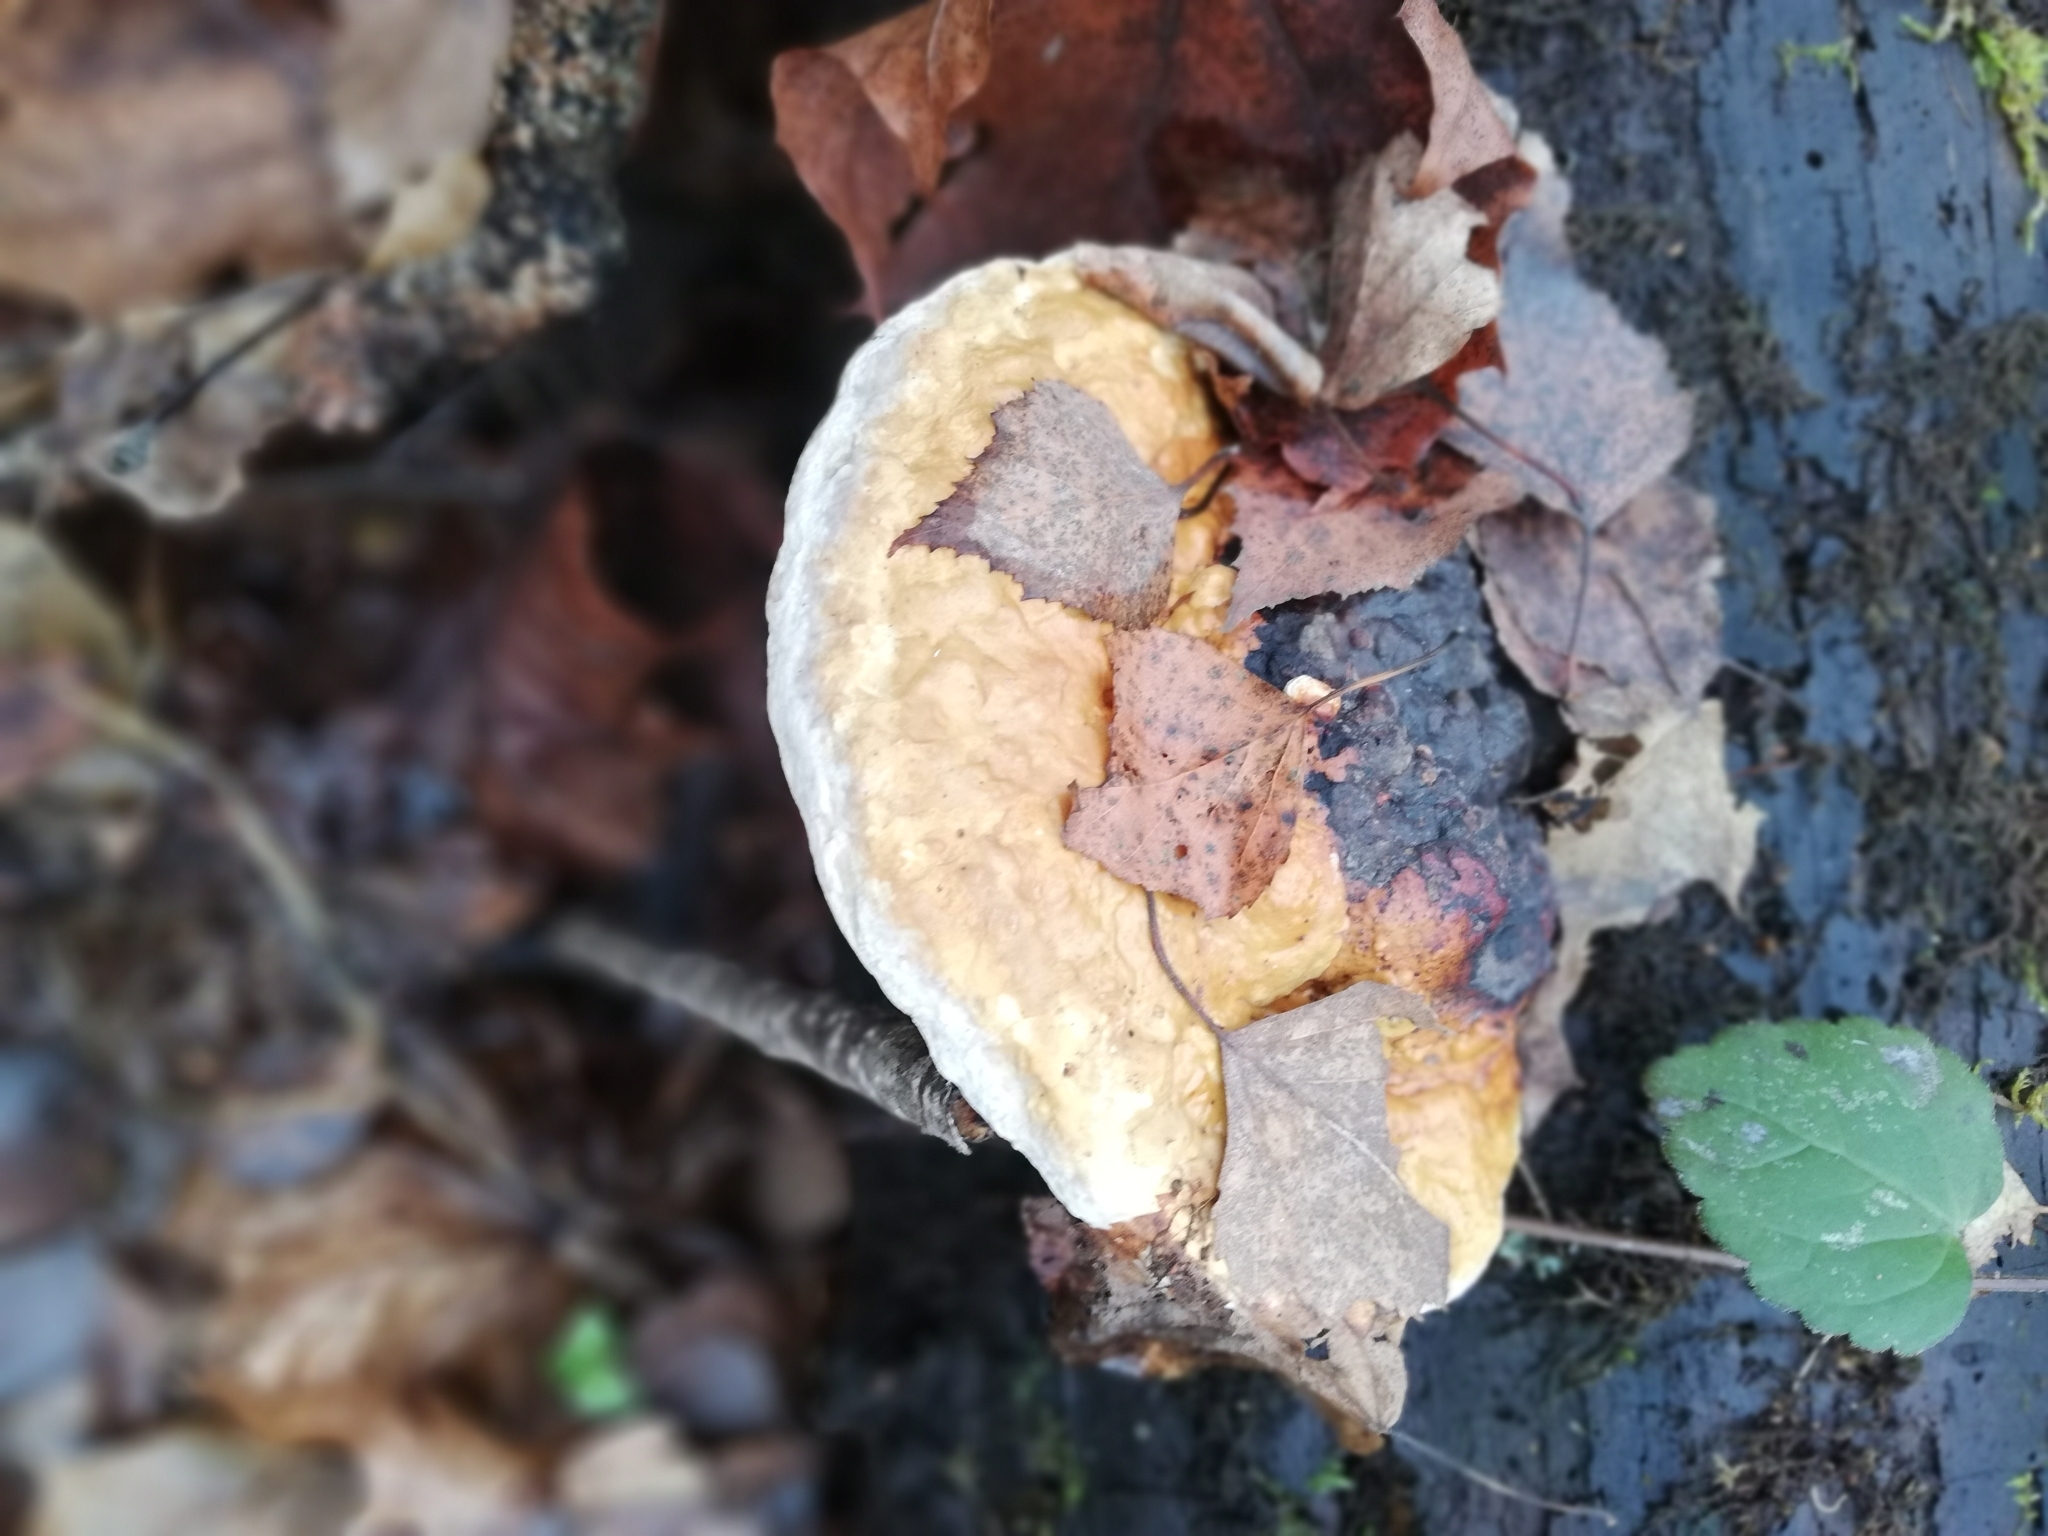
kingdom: Fungi
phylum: Basidiomycota
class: Agaricomycetes
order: Polyporales
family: Fomitopsidaceae
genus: Fomitopsis
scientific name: Fomitopsis pinicola
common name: Red-belted bracket
